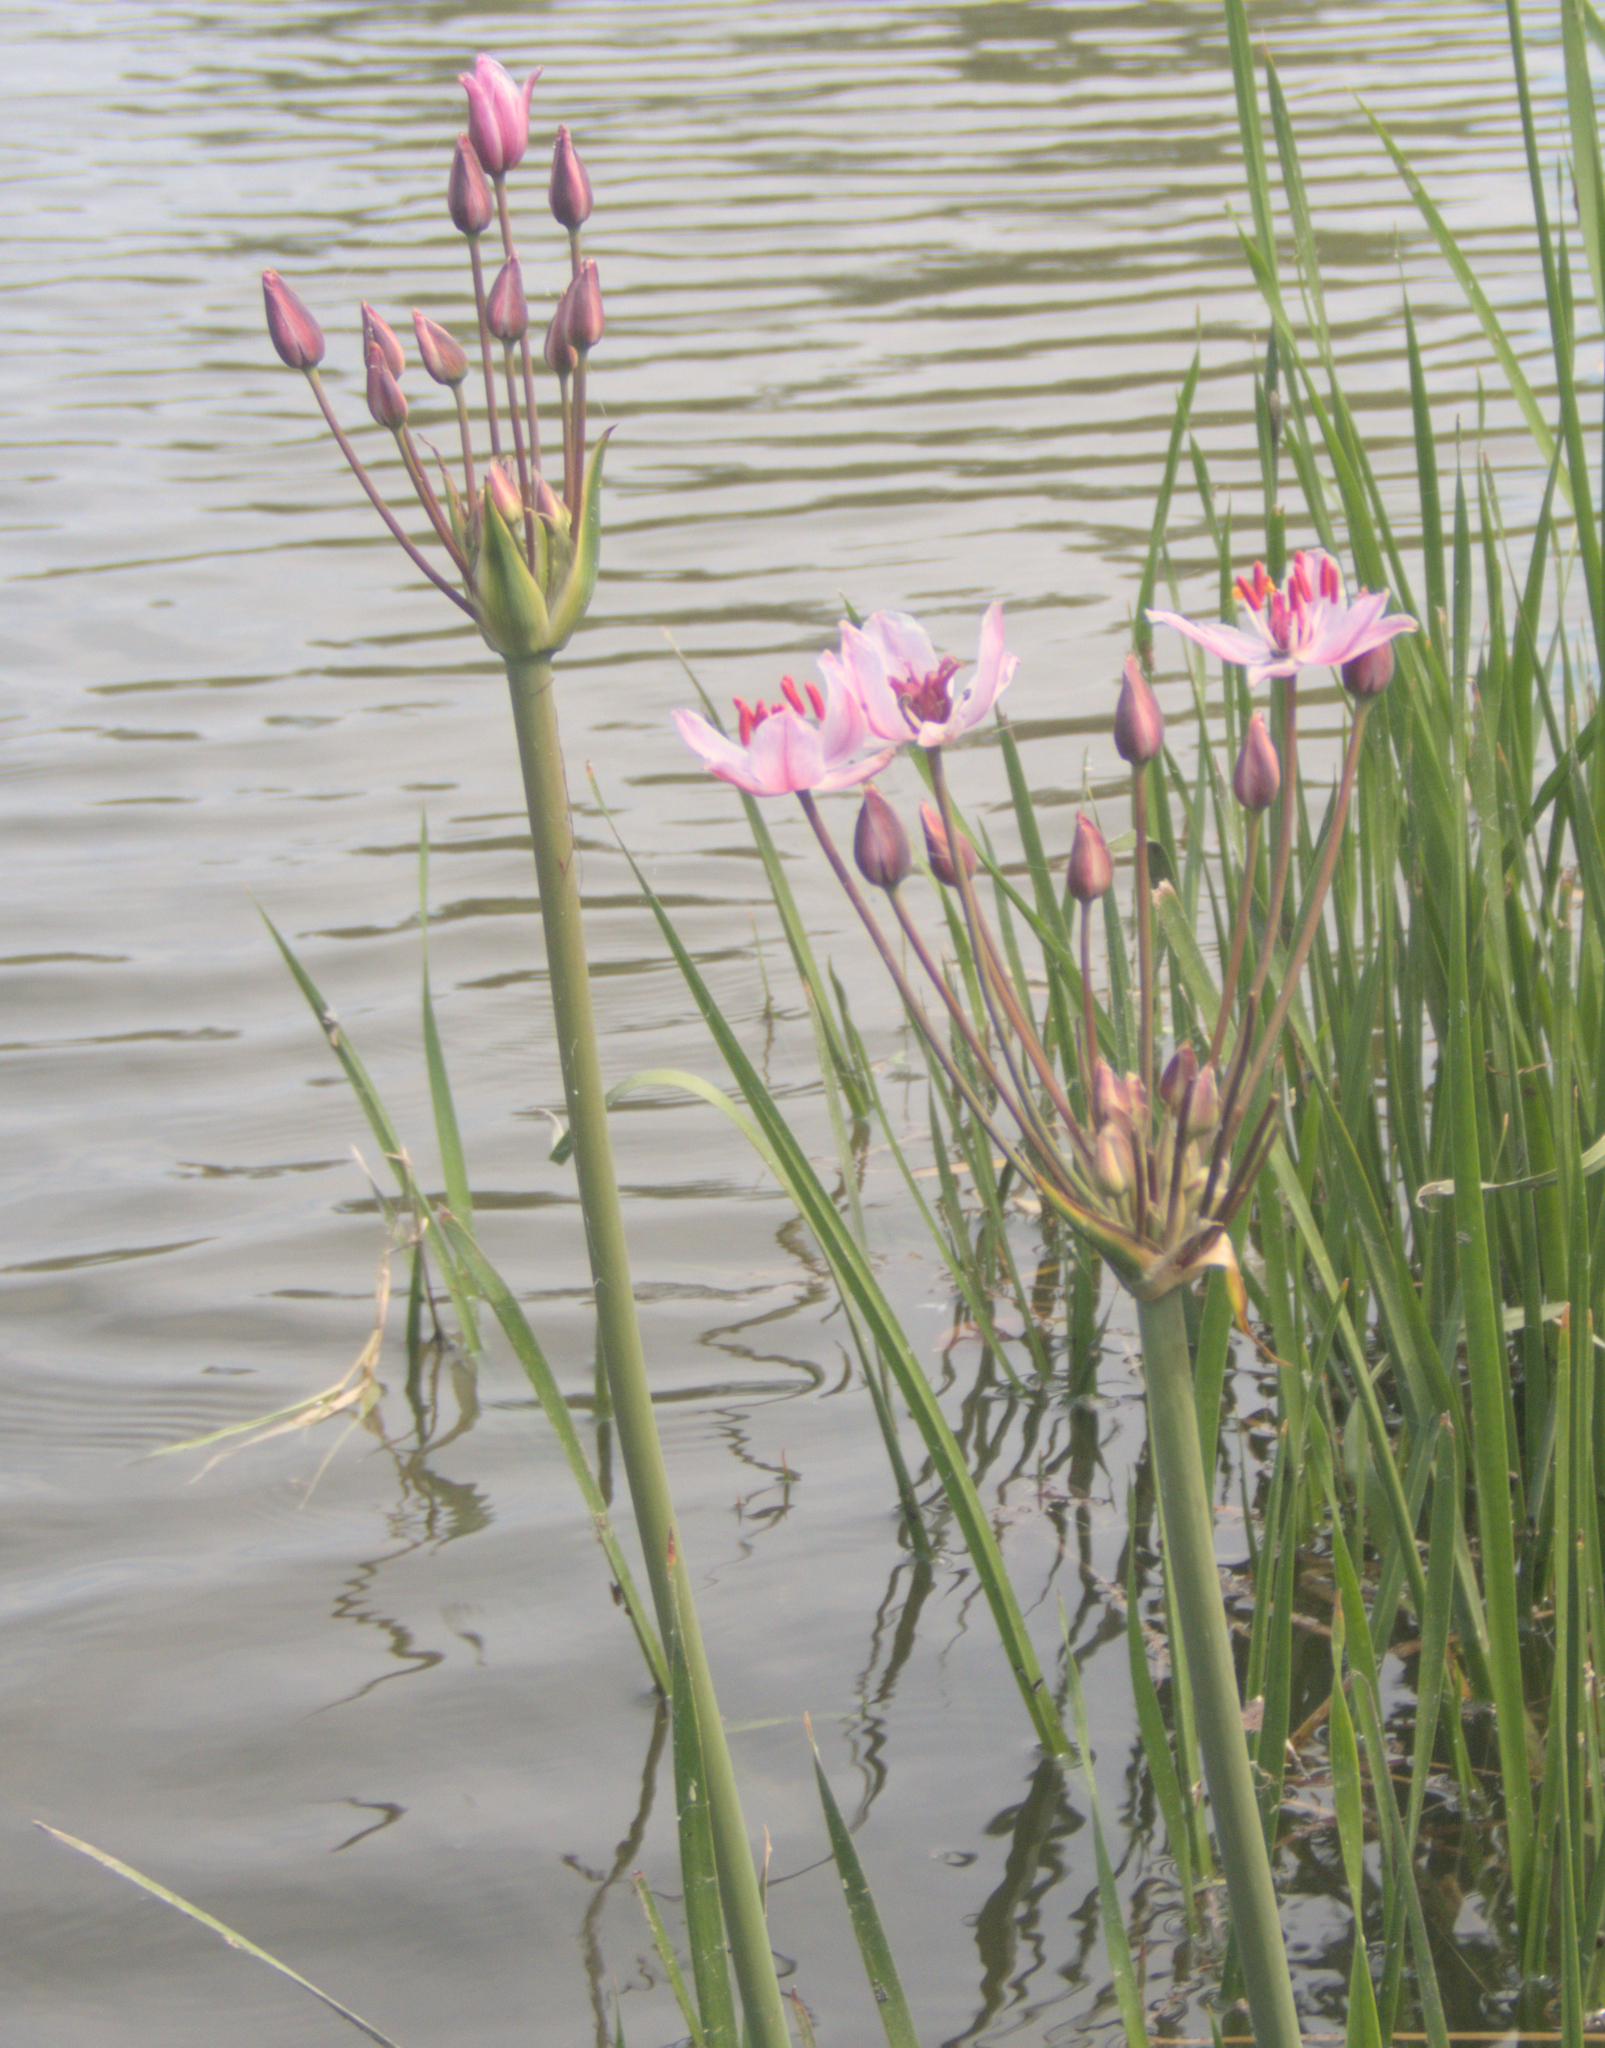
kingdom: Plantae
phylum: Tracheophyta
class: Liliopsida
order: Alismatales
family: Butomaceae
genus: Butomus
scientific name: Butomus umbellatus
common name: Flowering-rush
